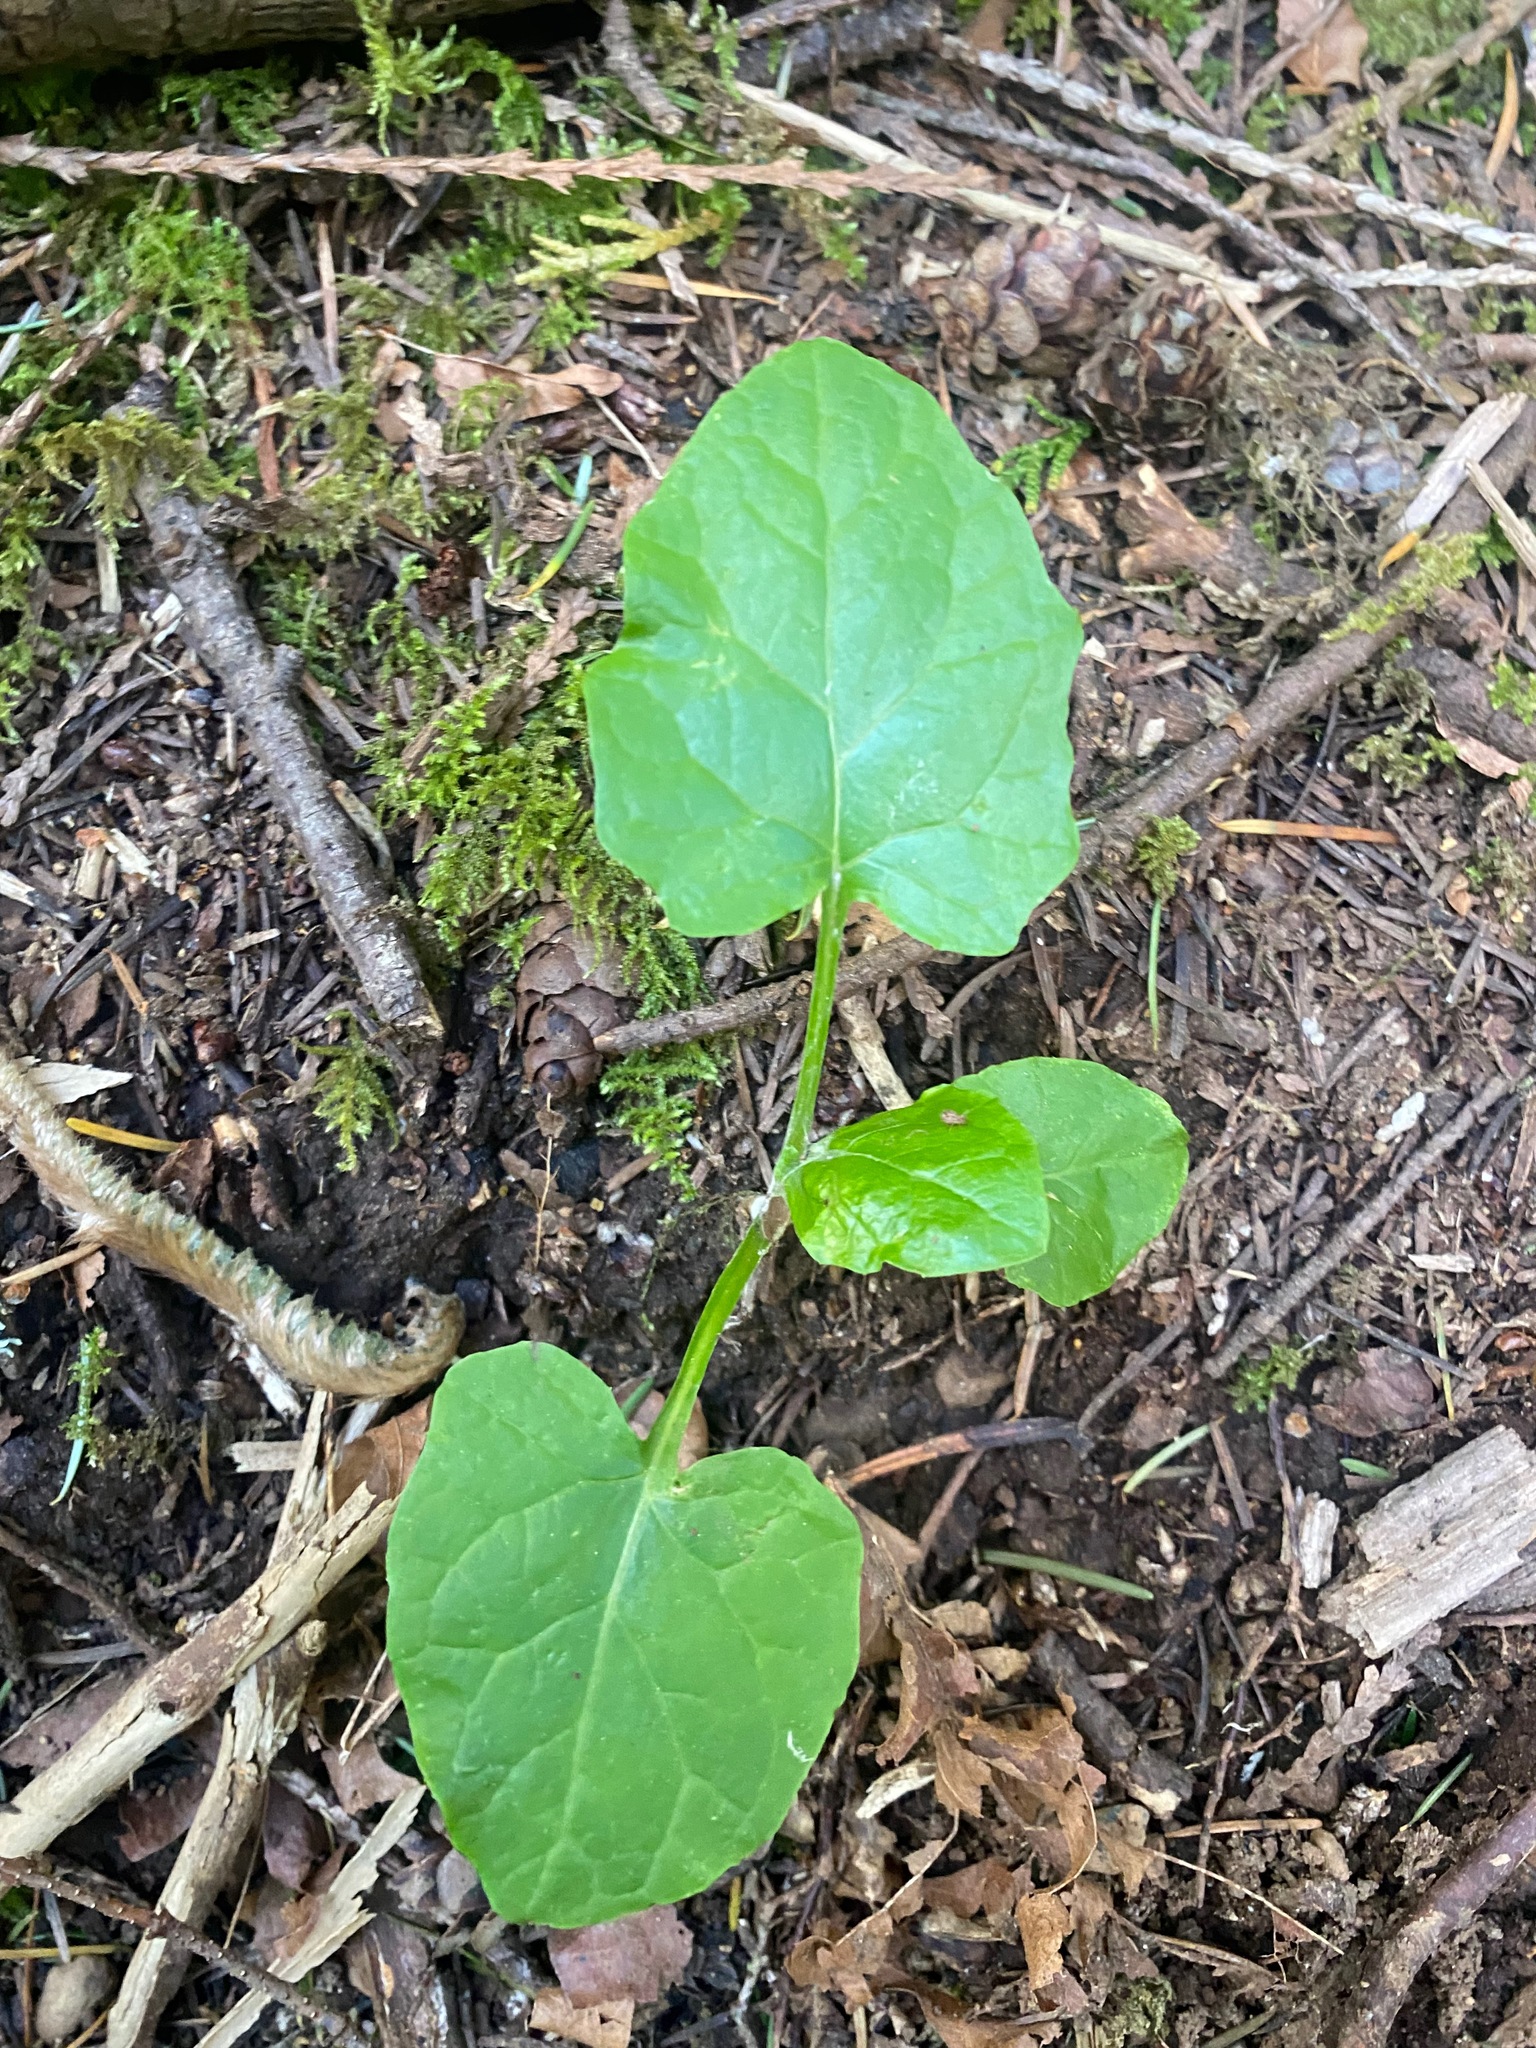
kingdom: Plantae
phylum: Tracheophyta
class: Magnoliopsida
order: Asterales
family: Asteraceae
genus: Adenocaulon
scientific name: Adenocaulon bicolor
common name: Trailplant
